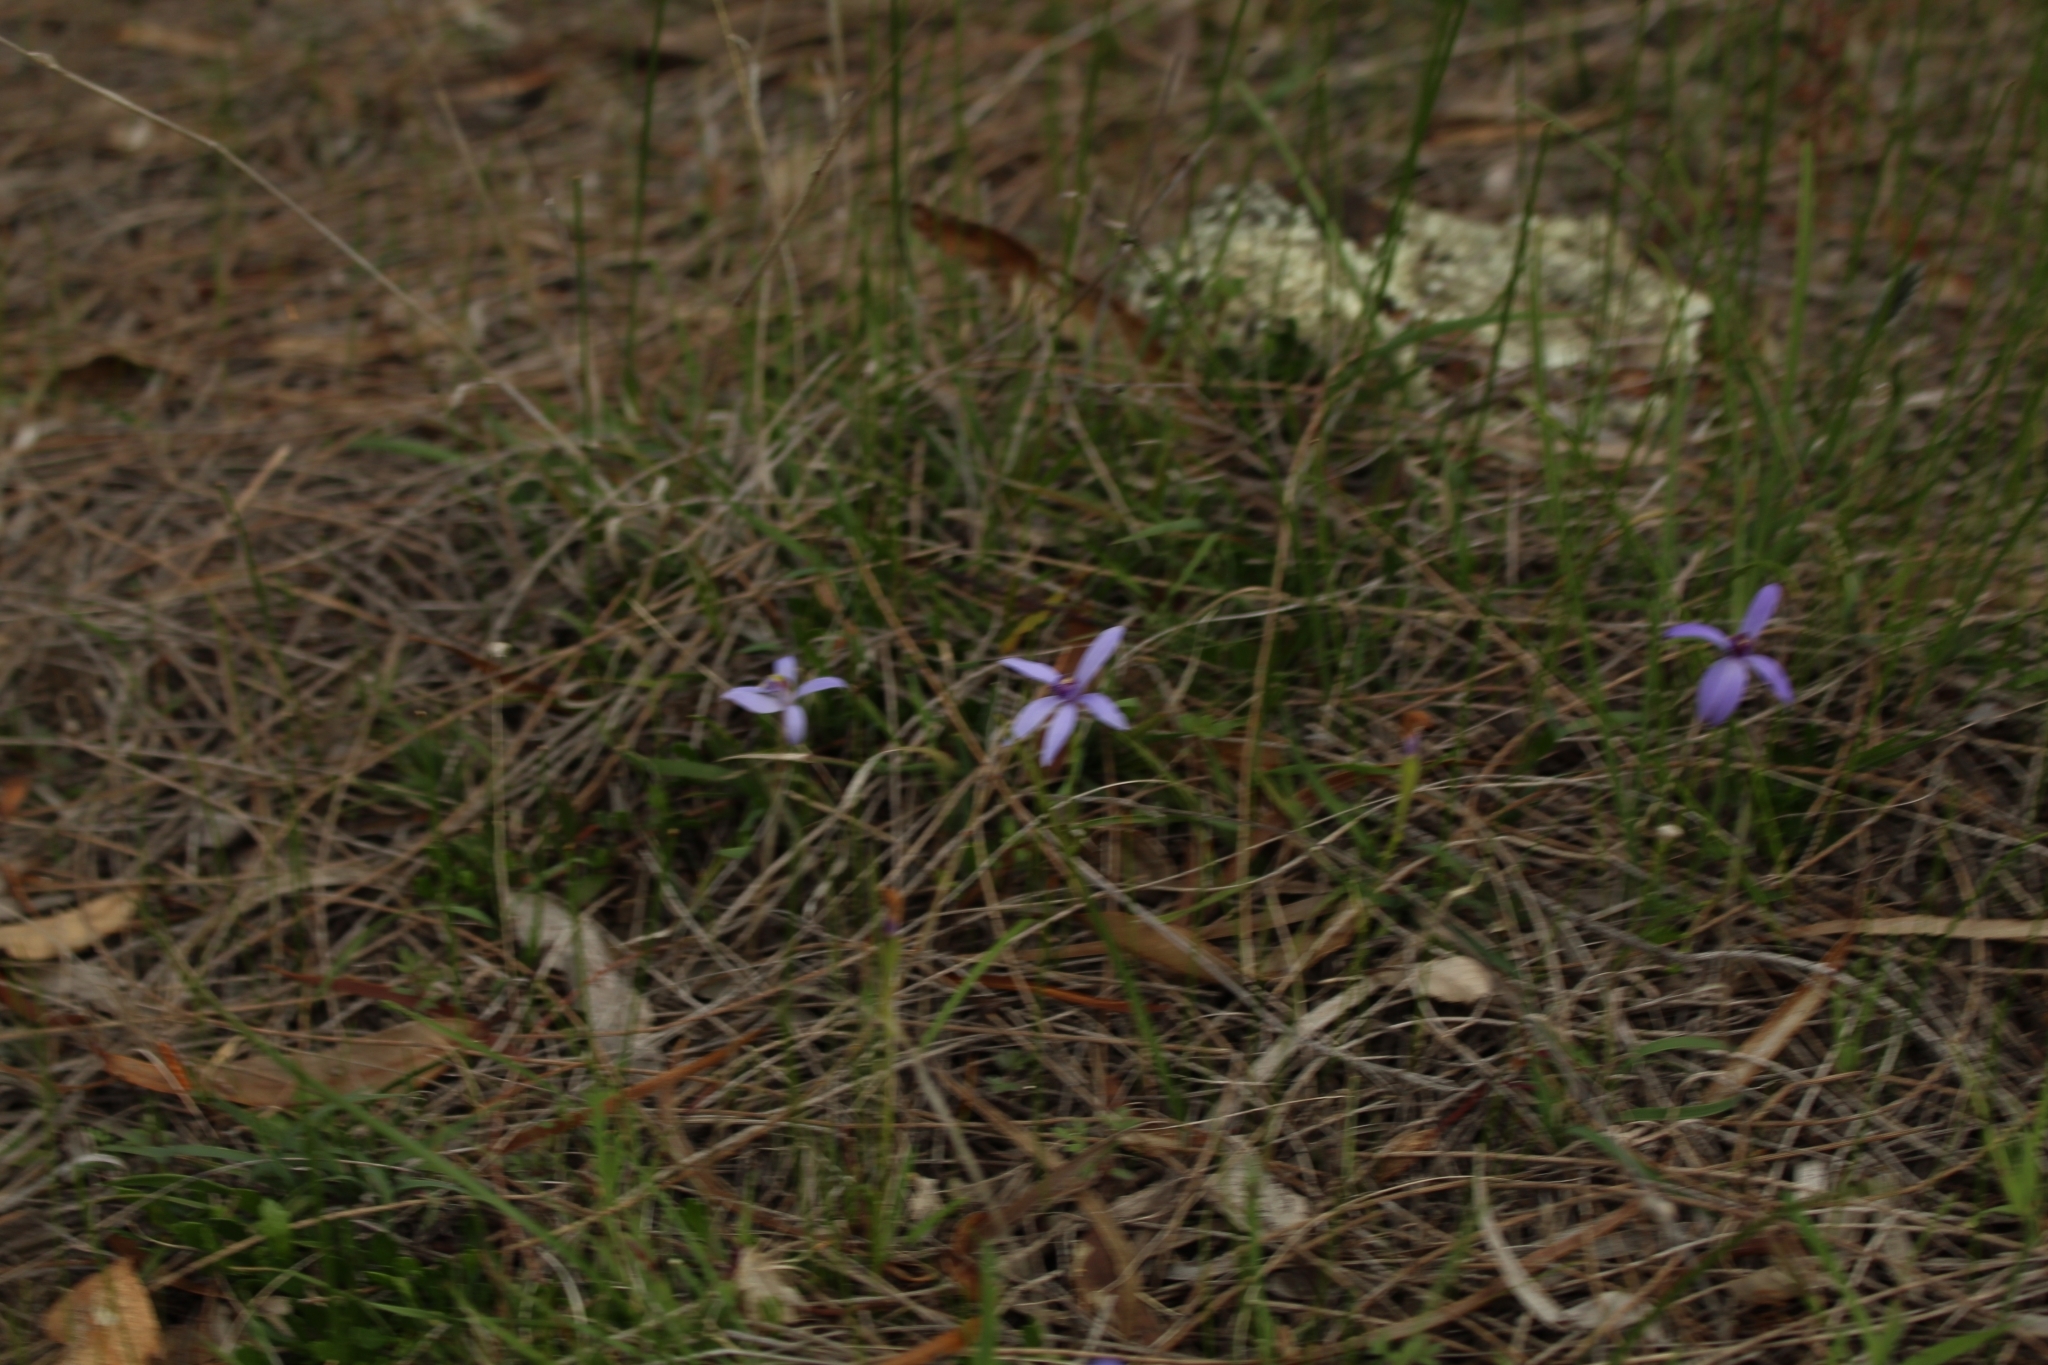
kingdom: Plantae
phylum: Tracheophyta
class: Liliopsida
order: Asparagales
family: Orchidaceae
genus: Pheladenia
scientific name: Pheladenia deformis
